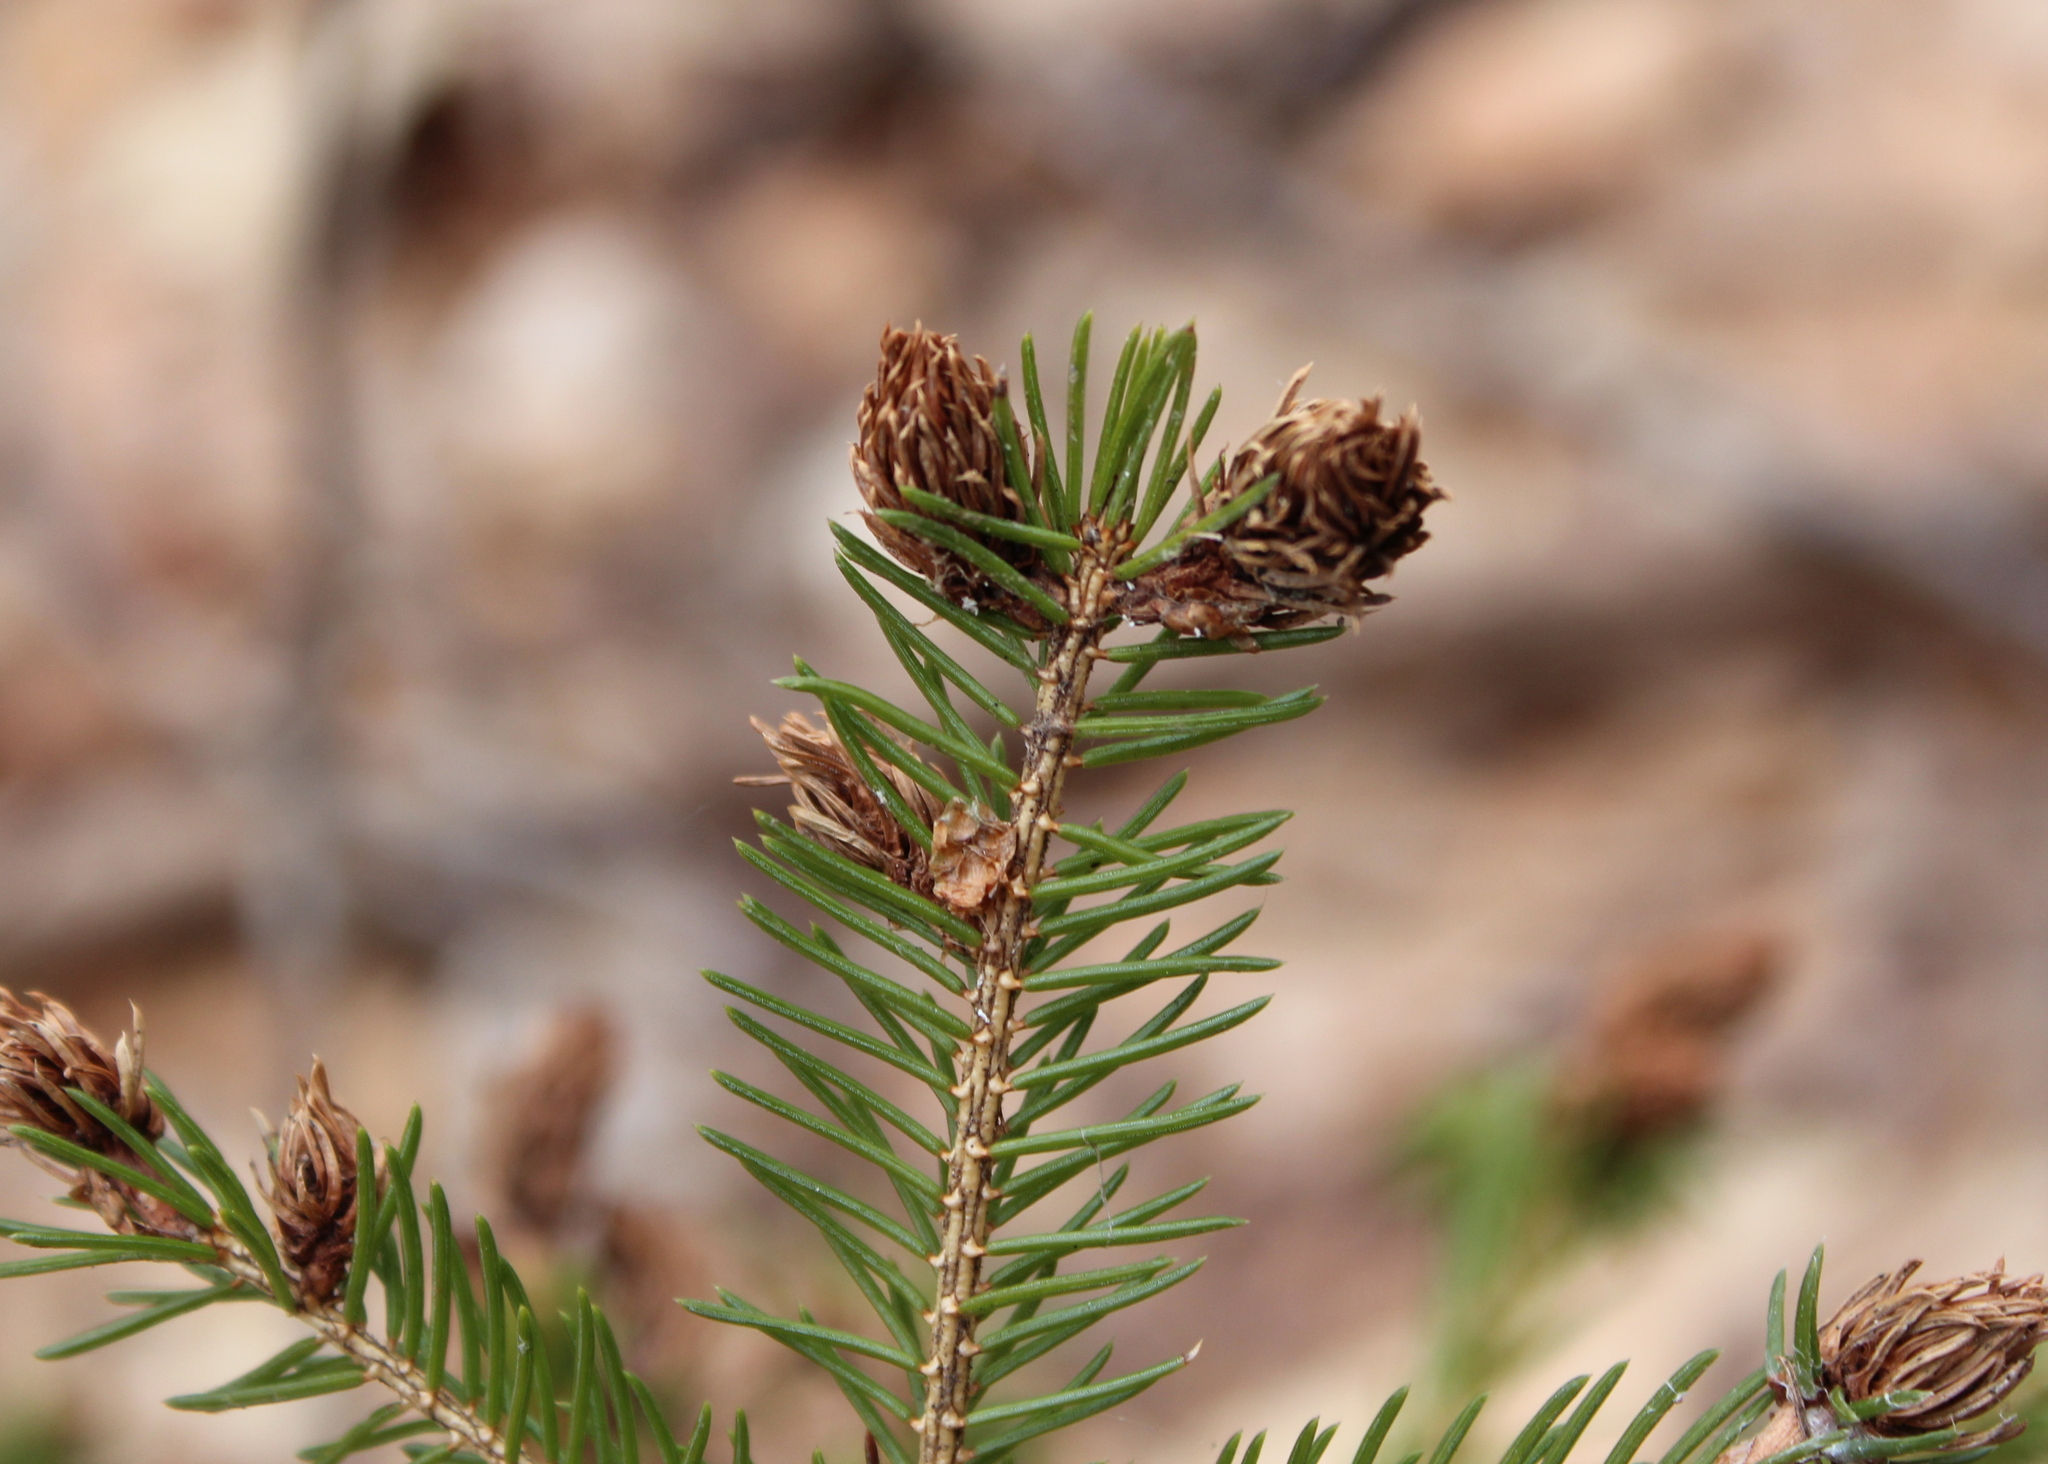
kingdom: Plantae
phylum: Tracheophyta
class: Pinopsida
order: Pinales
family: Pinaceae
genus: Picea
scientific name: Picea rubens
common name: Red spruce
